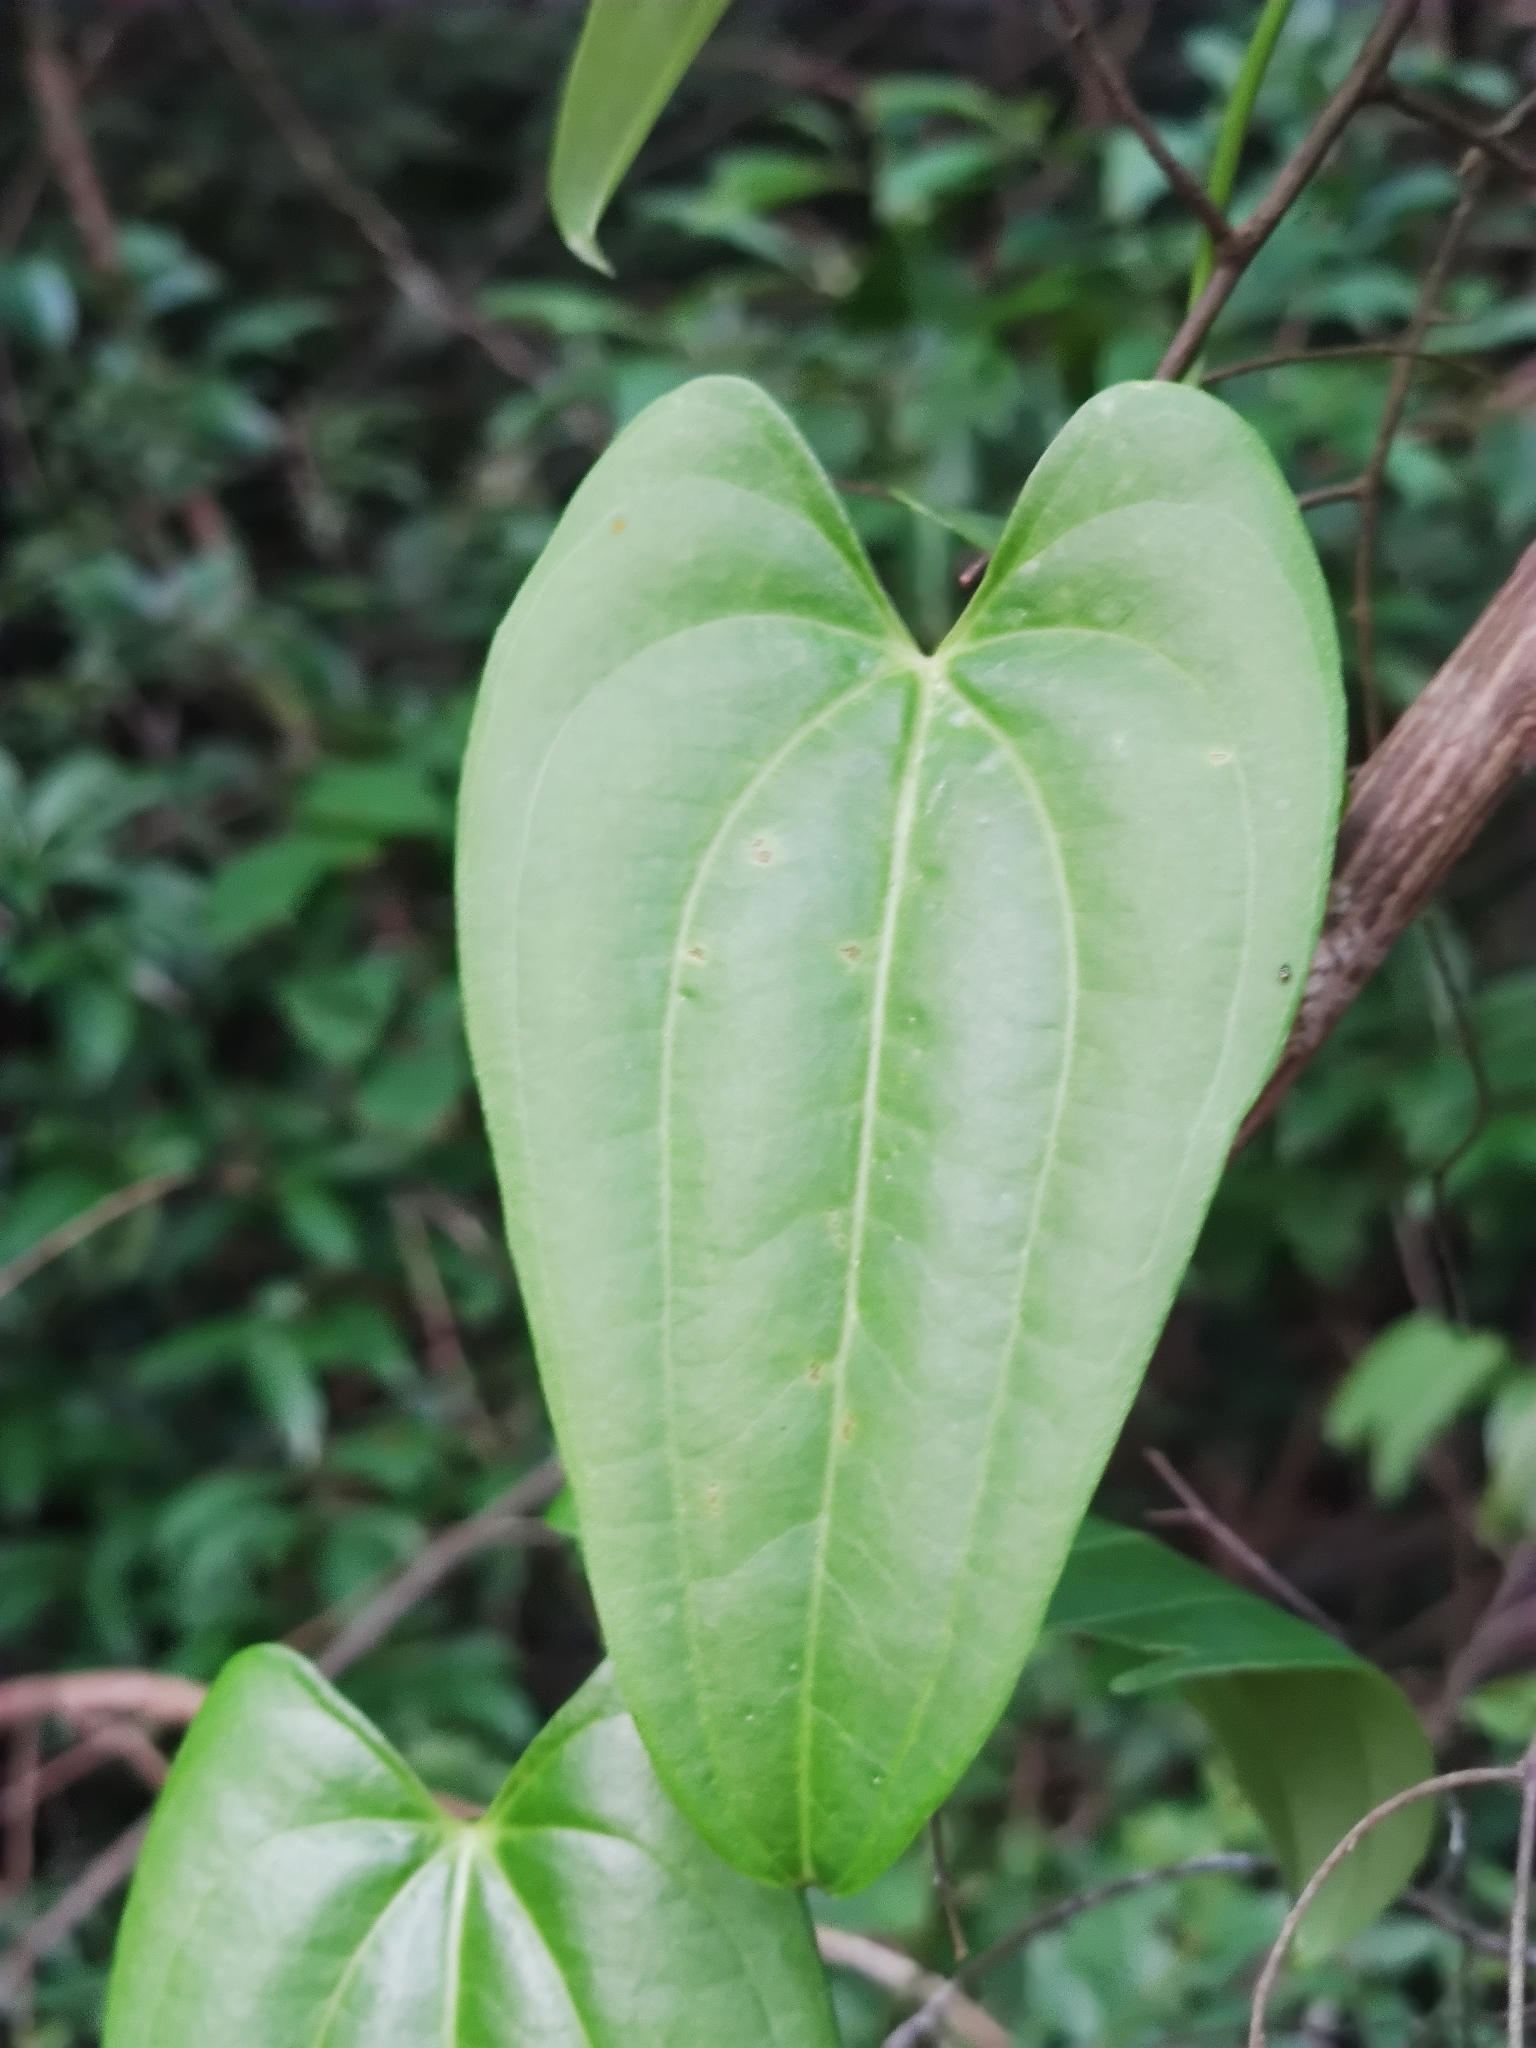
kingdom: Plantae
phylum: Tracheophyta
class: Liliopsida
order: Dioscoreales
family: Dioscoreaceae
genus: Dioscorea
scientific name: Dioscorea alata
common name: Water yam
